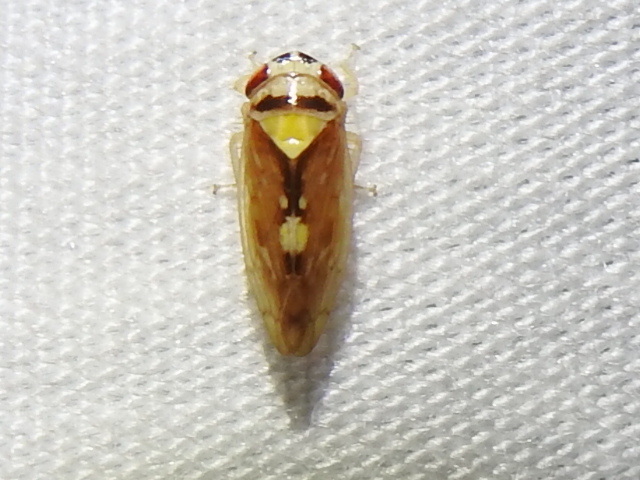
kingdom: Animalia
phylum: Arthropoda
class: Insecta
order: Hemiptera
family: Cicadellidae
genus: Eutettix
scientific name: Eutettix prinoides
